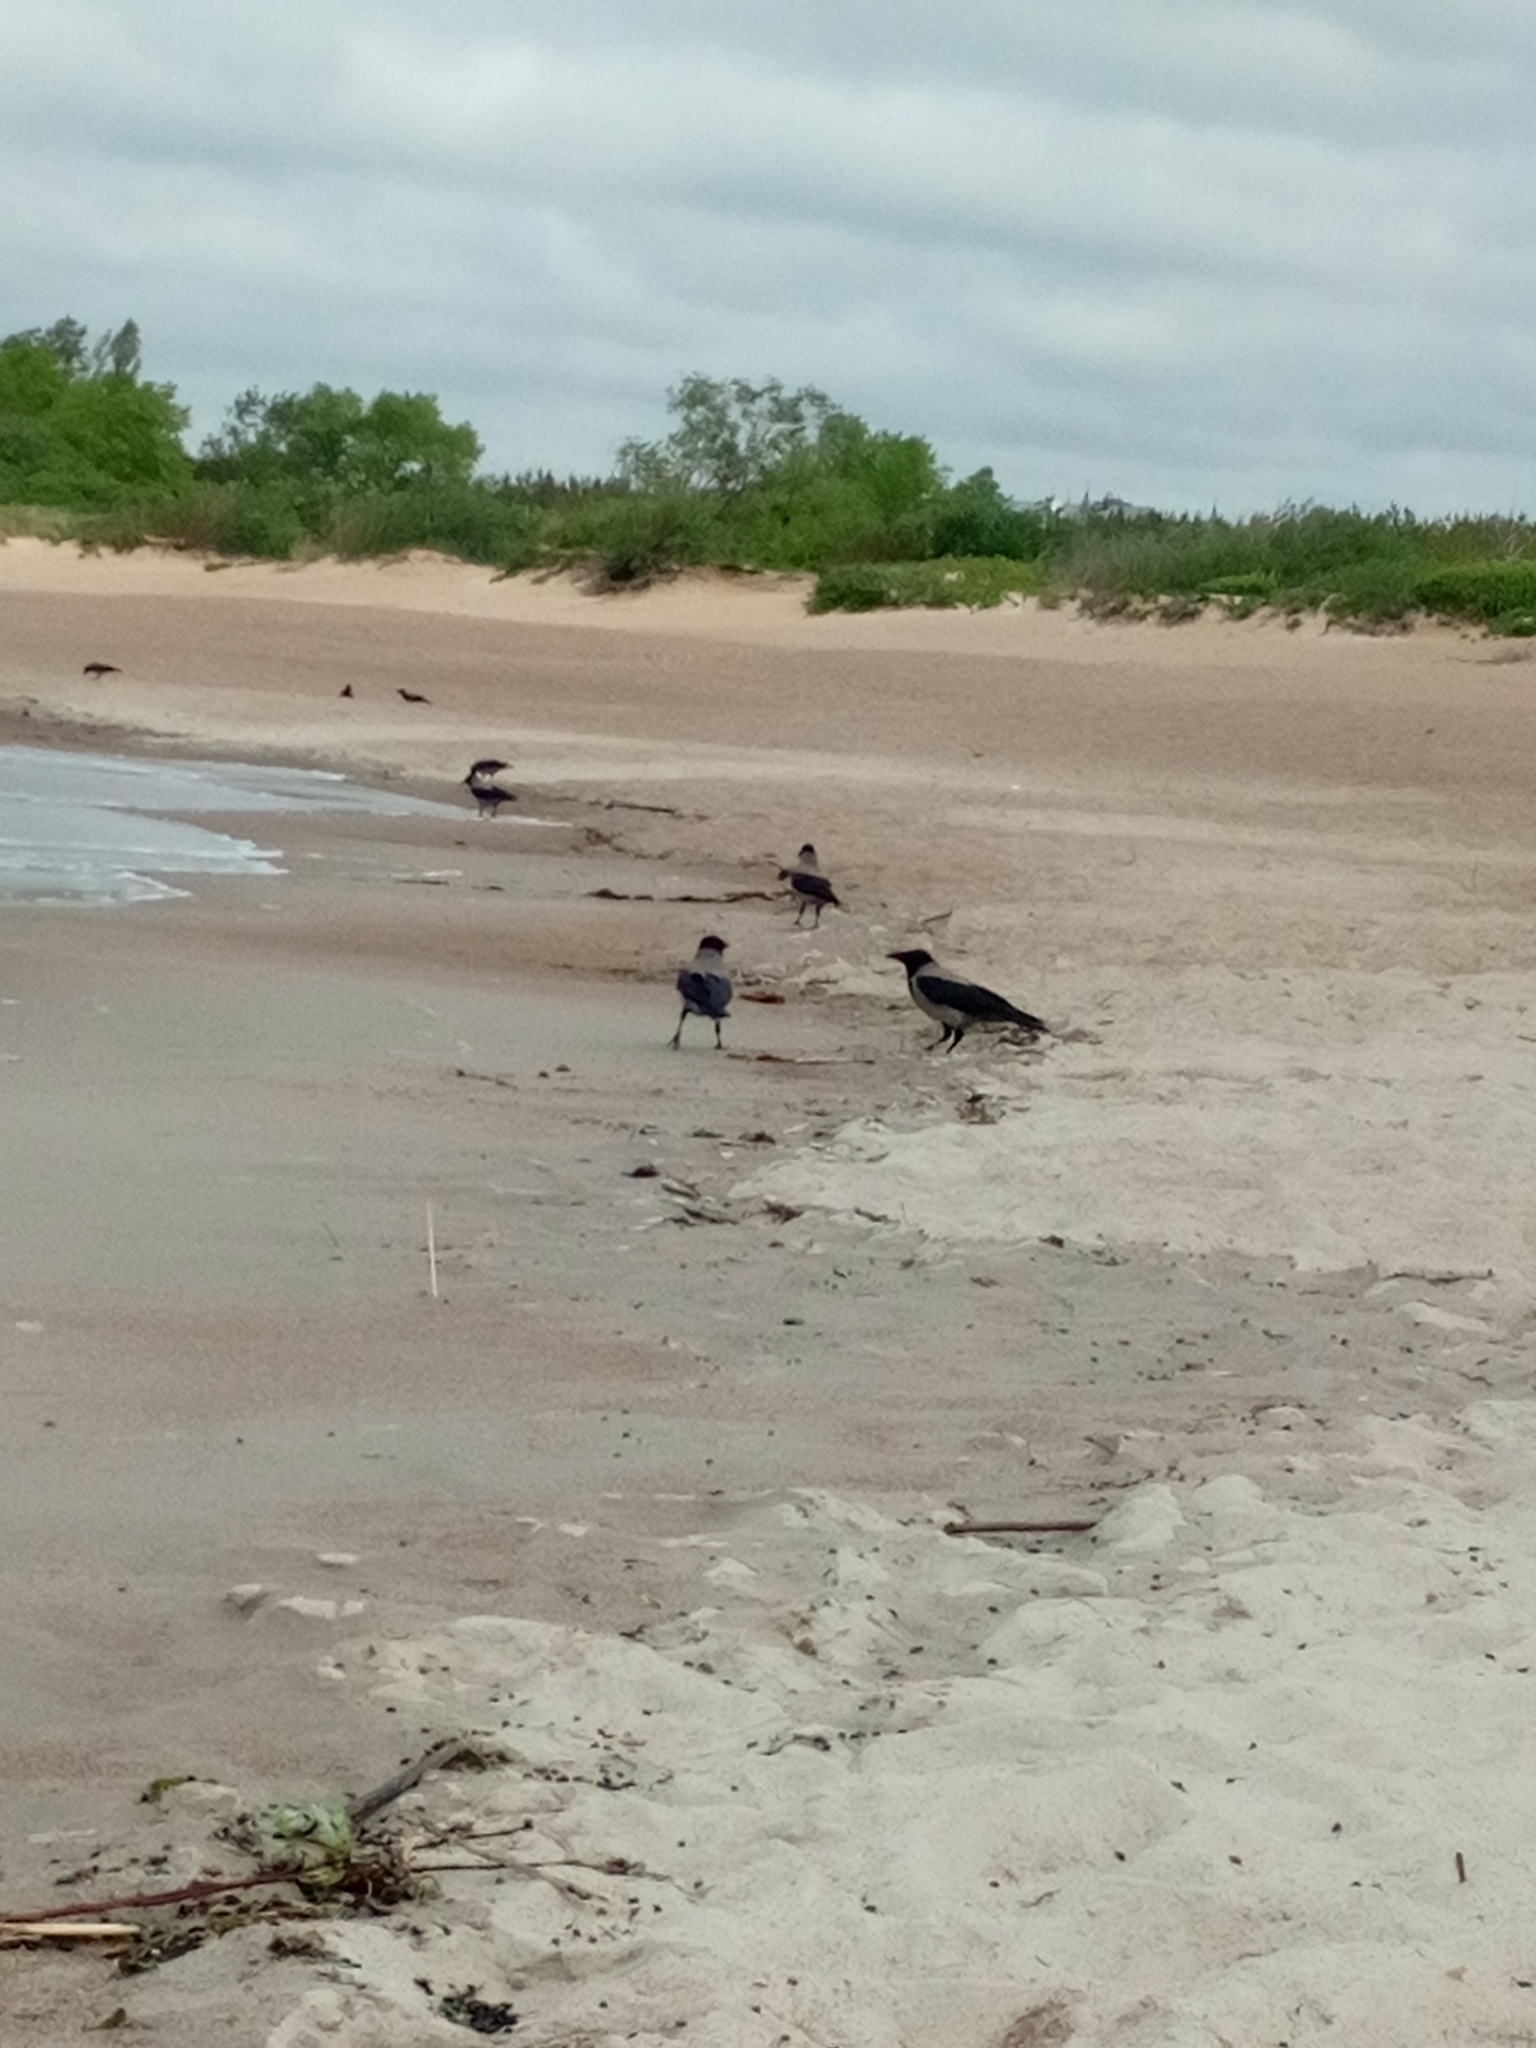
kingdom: Animalia
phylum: Chordata
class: Aves
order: Passeriformes
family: Corvidae
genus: Corvus
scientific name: Corvus cornix
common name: Hooded crow
